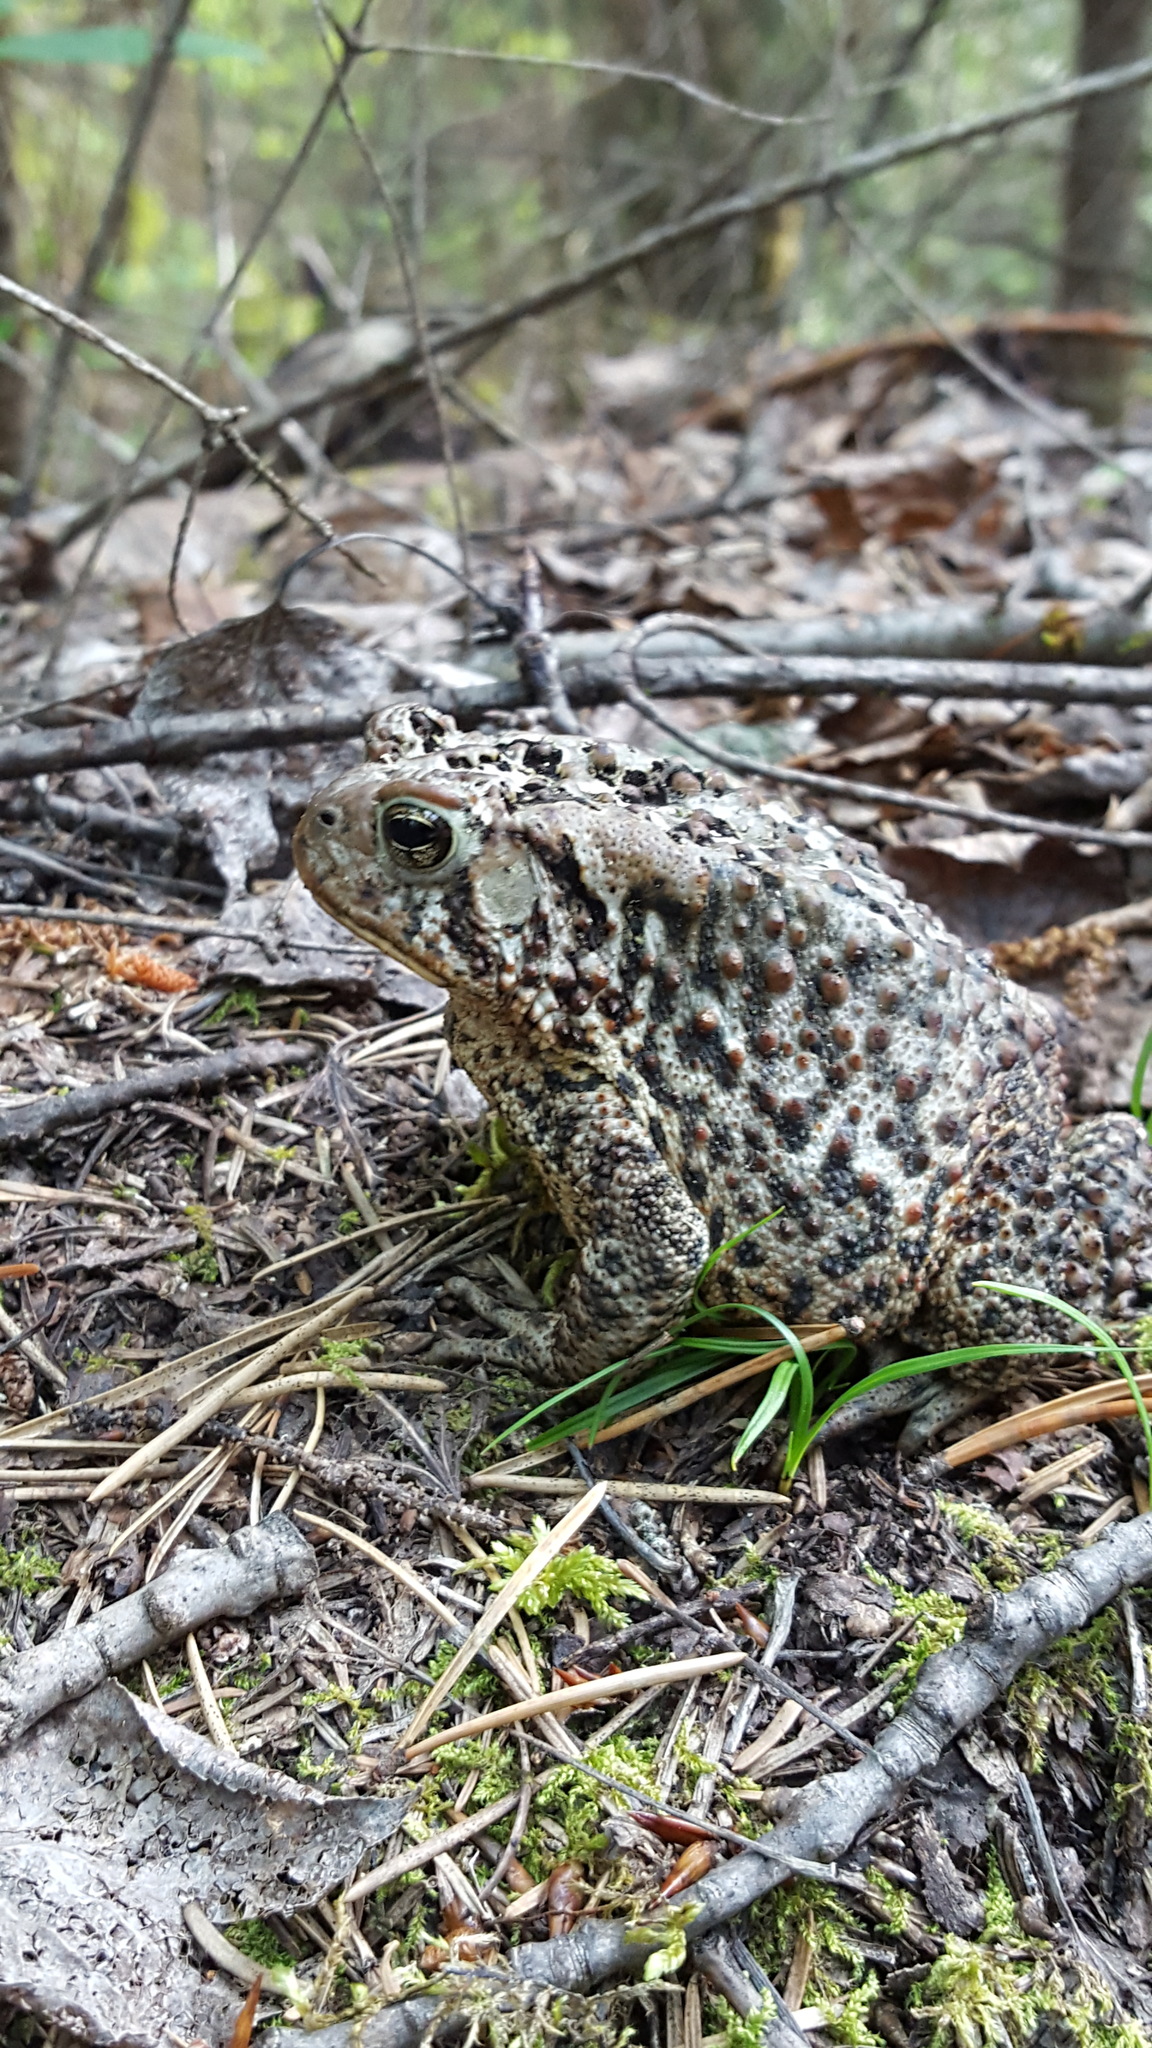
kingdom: Animalia
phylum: Chordata
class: Amphibia
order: Anura
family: Bufonidae
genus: Anaxyrus
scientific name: Anaxyrus americanus
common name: American toad
